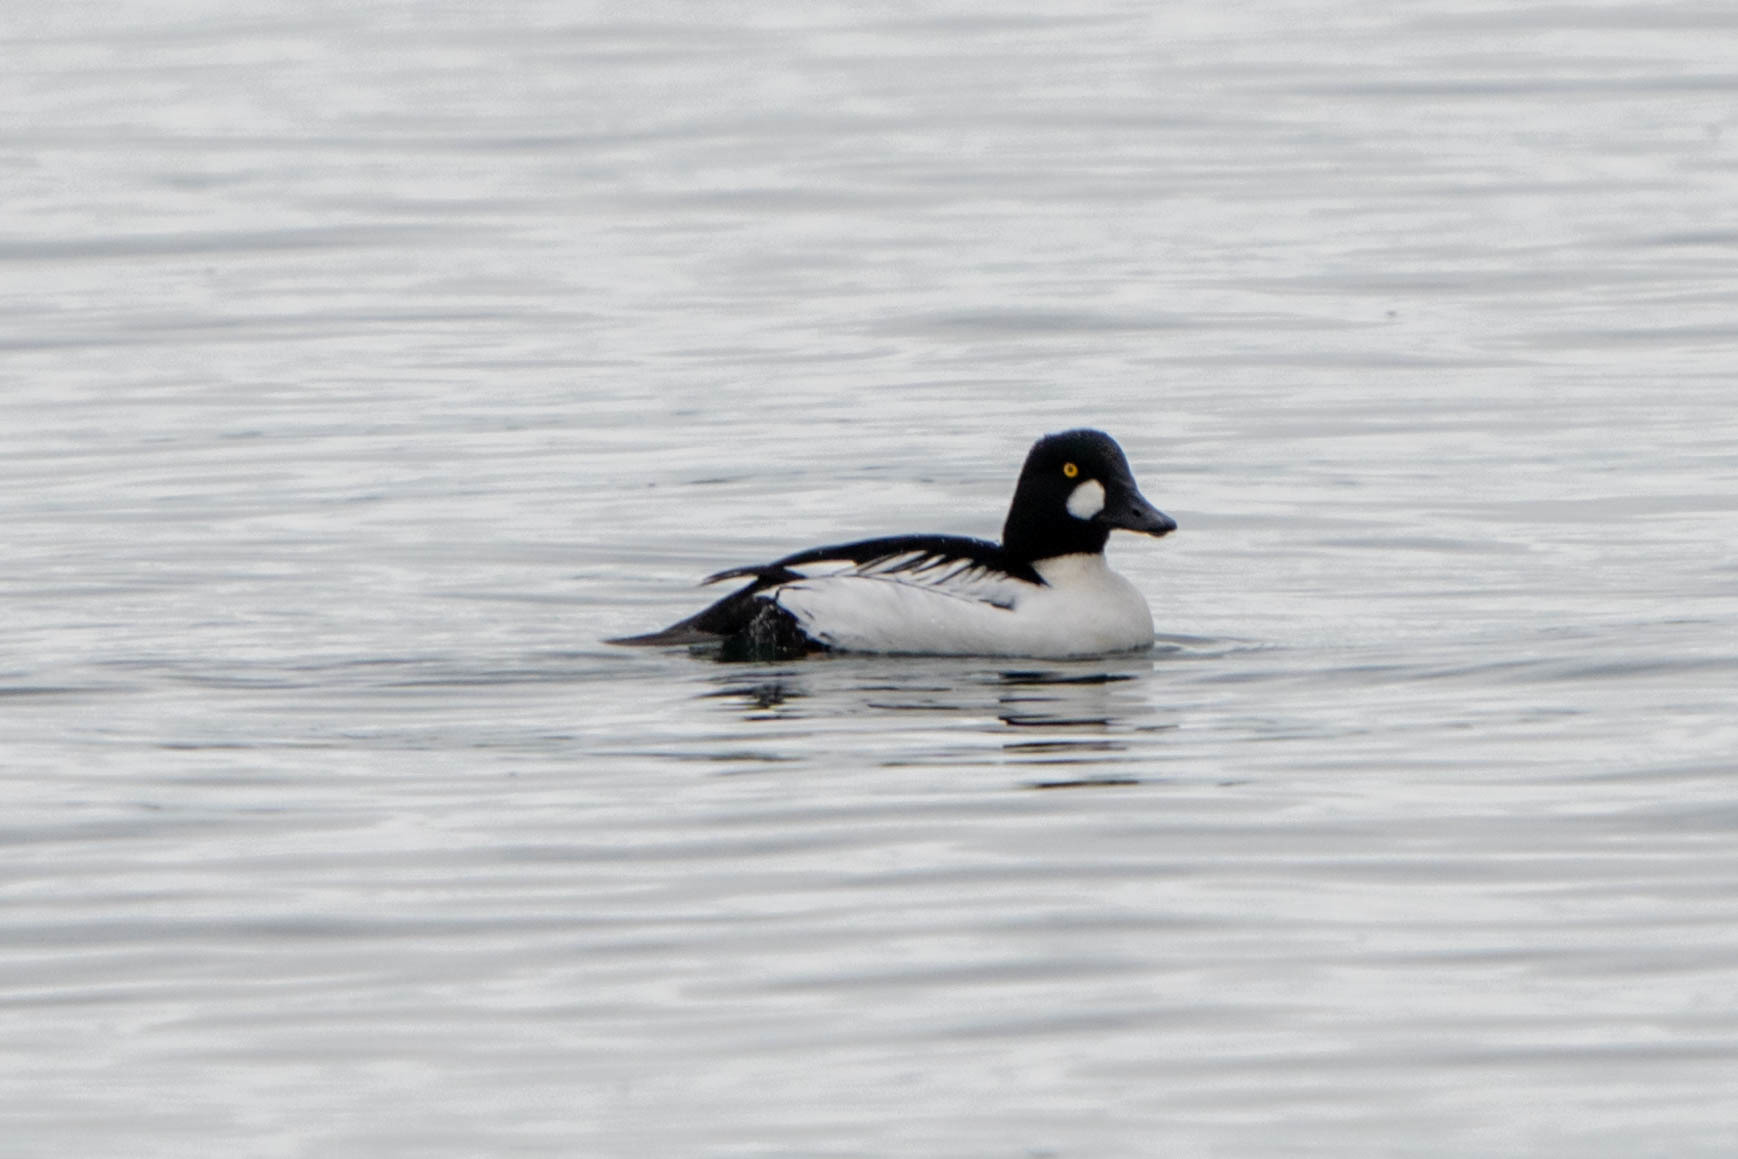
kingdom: Animalia
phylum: Chordata
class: Aves
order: Anseriformes
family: Anatidae
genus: Bucephala
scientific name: Bucephala clangula
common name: Common goldeneye
